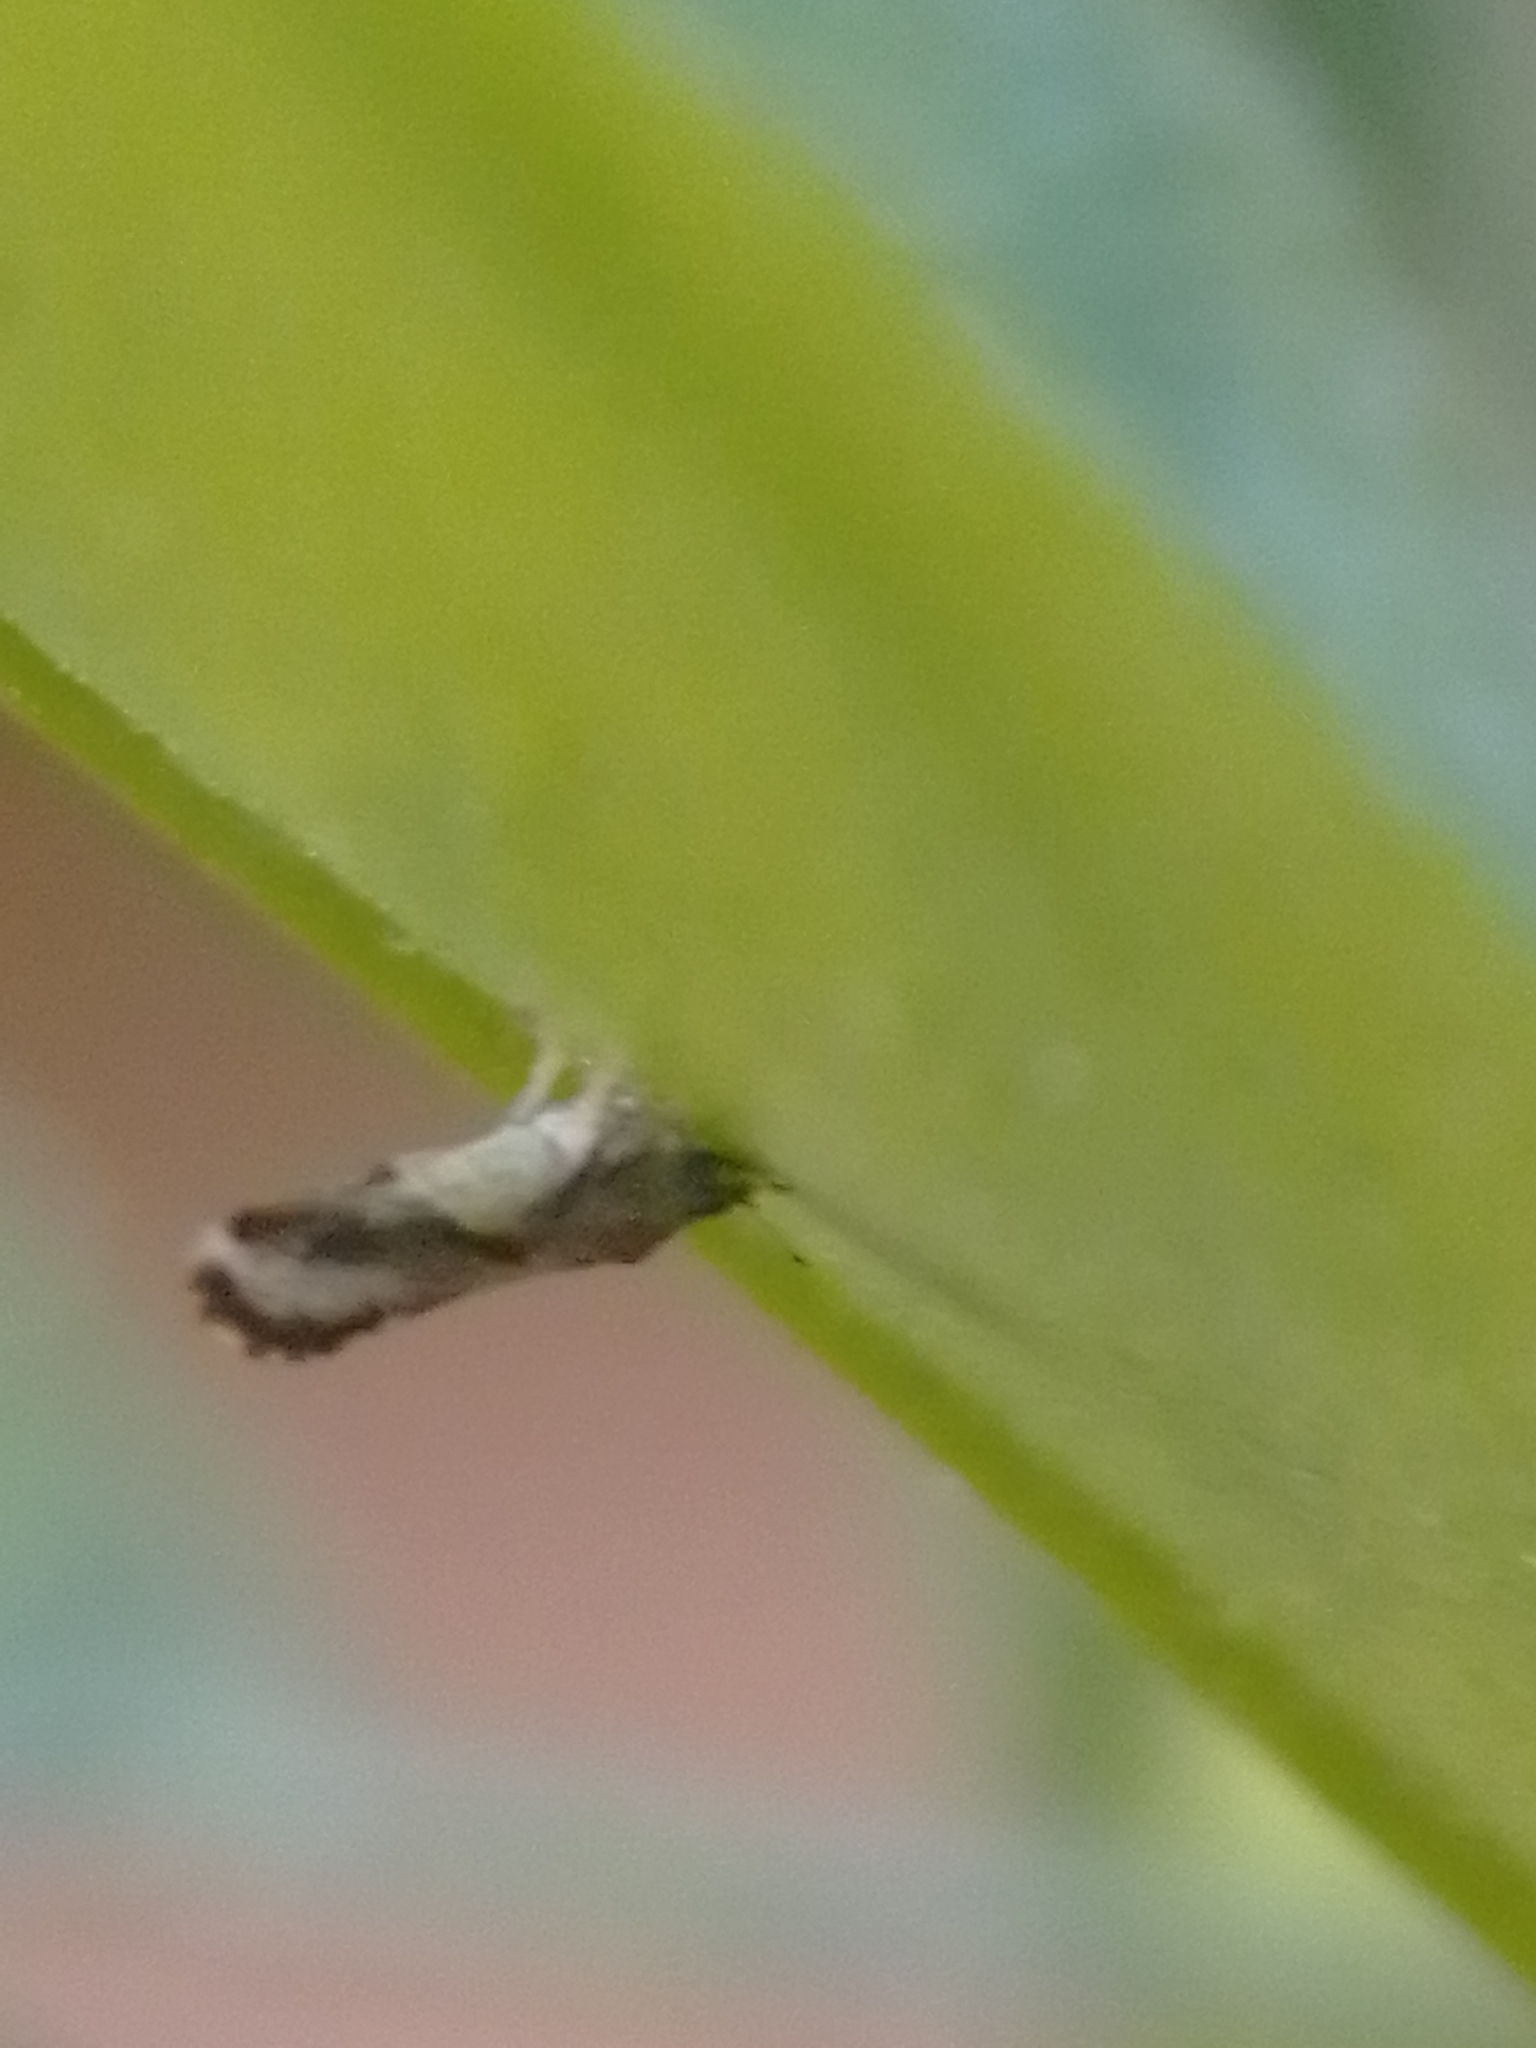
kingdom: Animalia
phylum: Arthropoda
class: Insecta
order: Hemiptera
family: Liviidae
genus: Diaphorina
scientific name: Diaphorina citri
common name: Asian citrus psyllid
